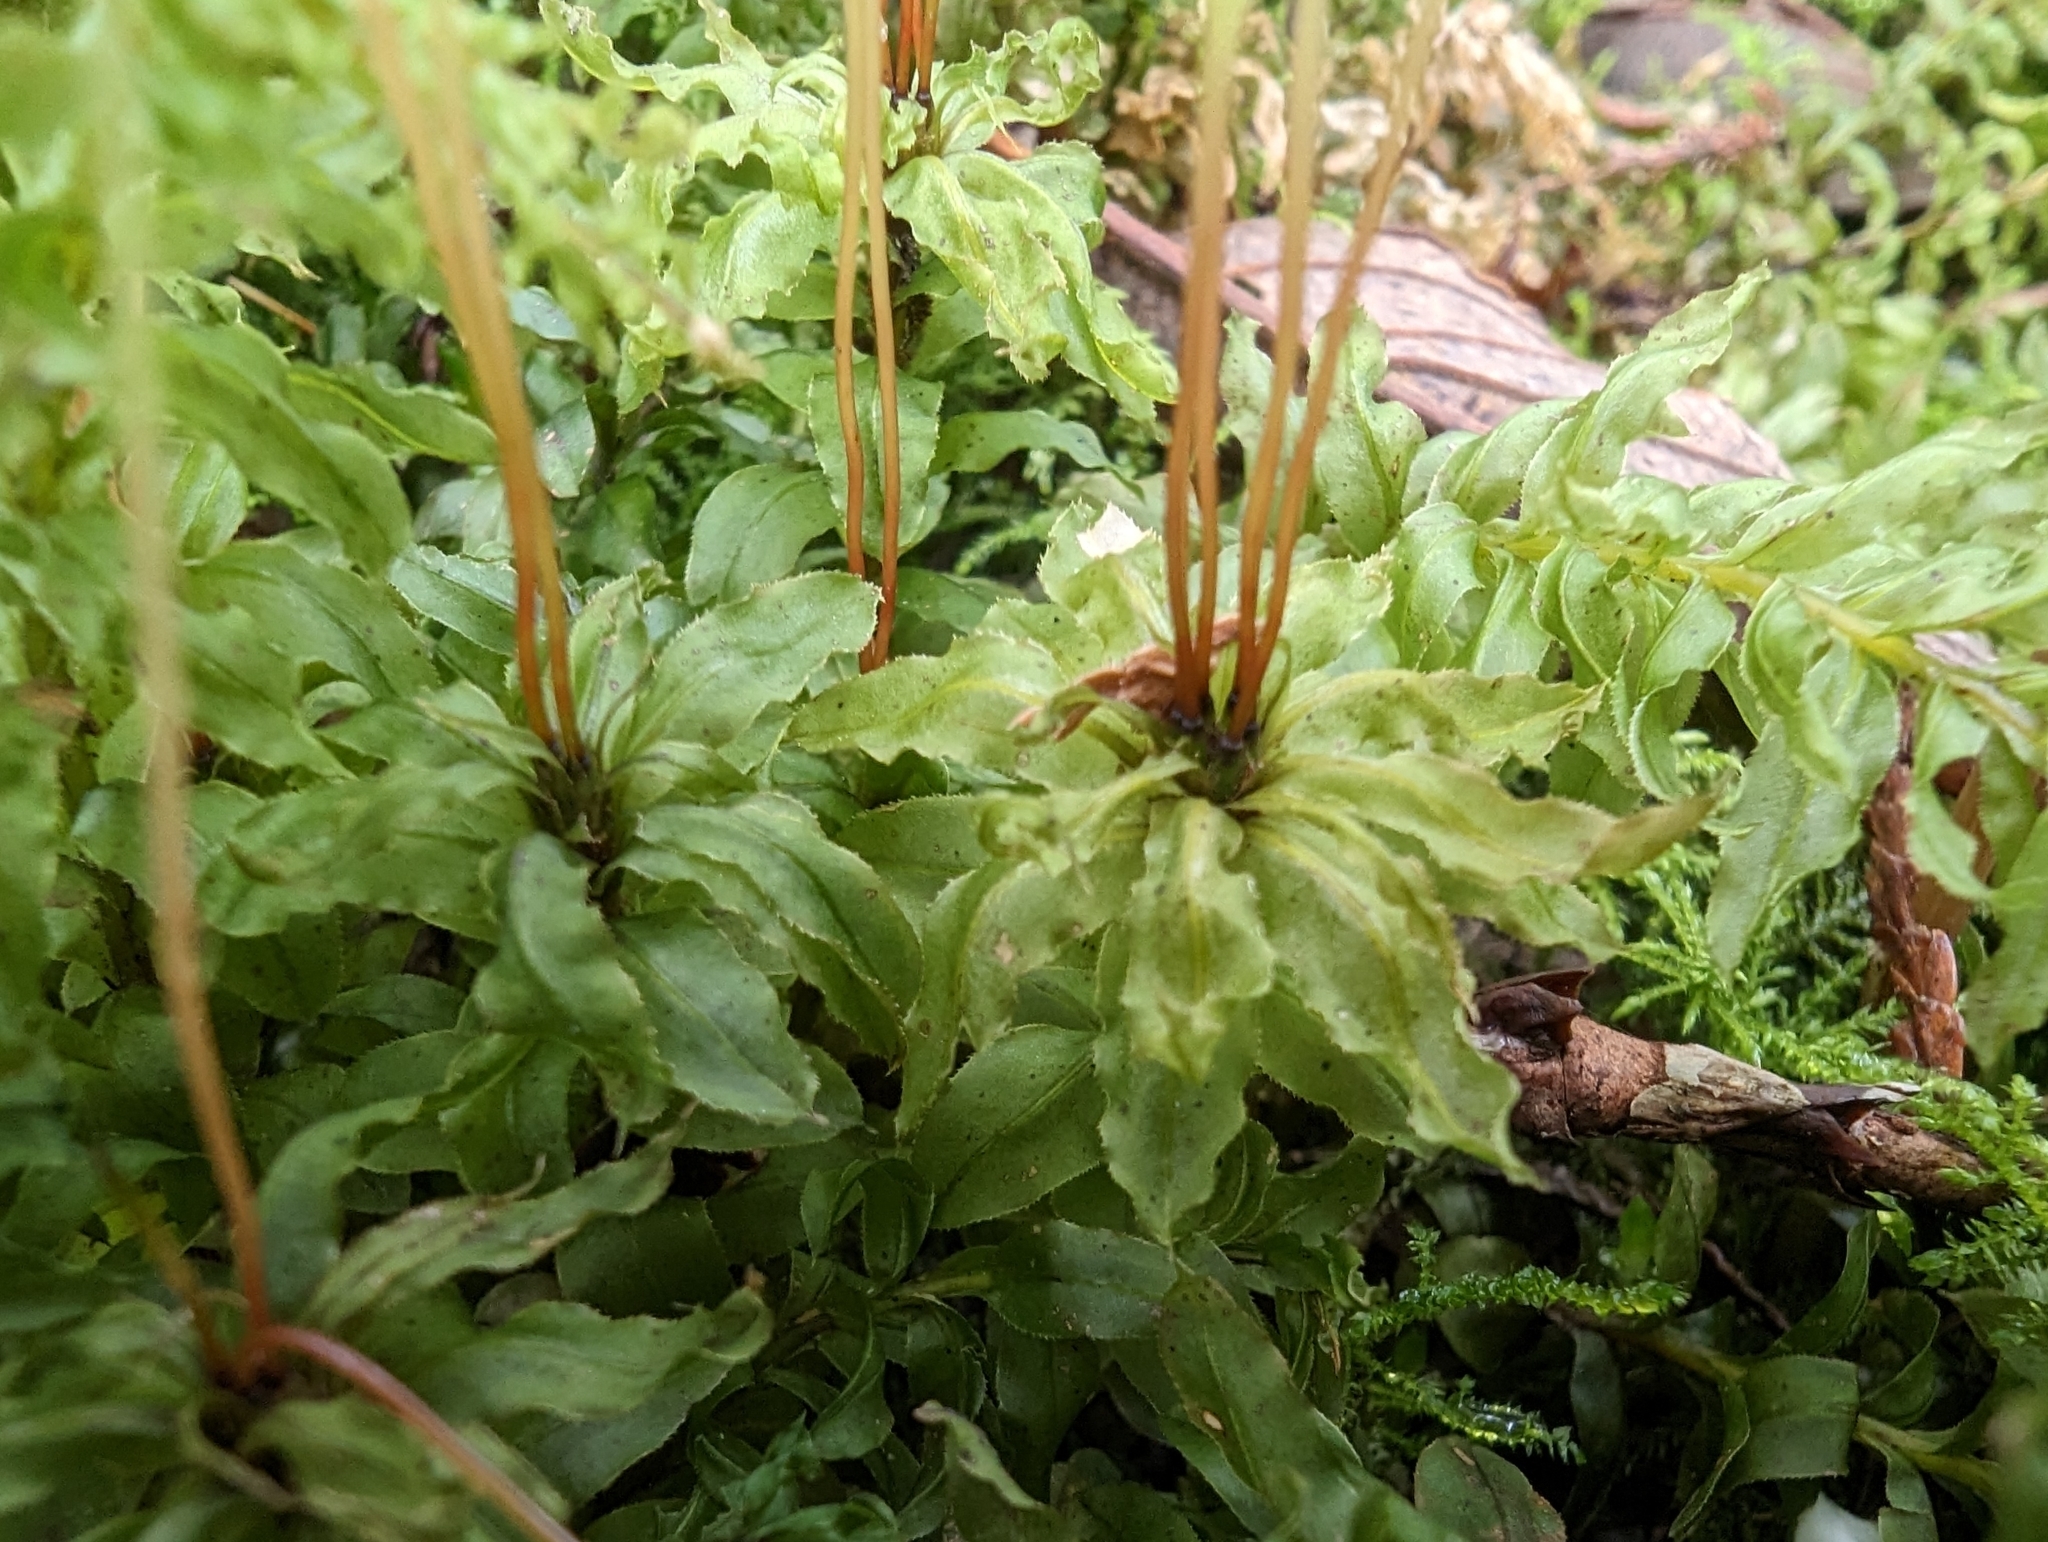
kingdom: Plantae
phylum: Bryophyta
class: Bryopsida
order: Bryales
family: Mniaceae
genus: Plagiomnium
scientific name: Plagiomnium insigne
